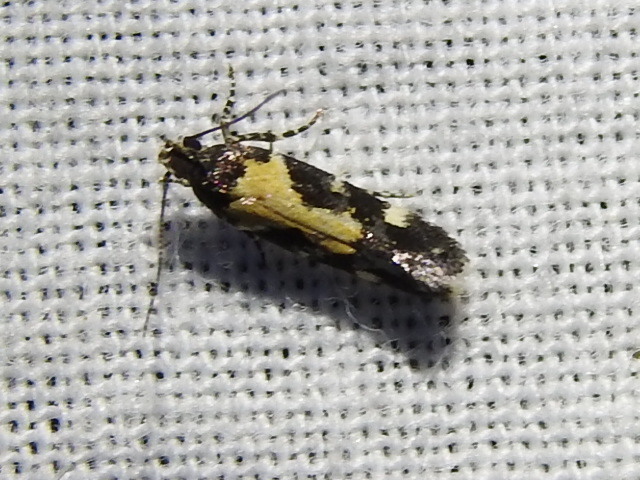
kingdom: Animalia
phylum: Arthropoda
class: Insecta
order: Lepidoptera
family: Gelechiidae
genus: Stegasta
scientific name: Stegasta bosqueella
